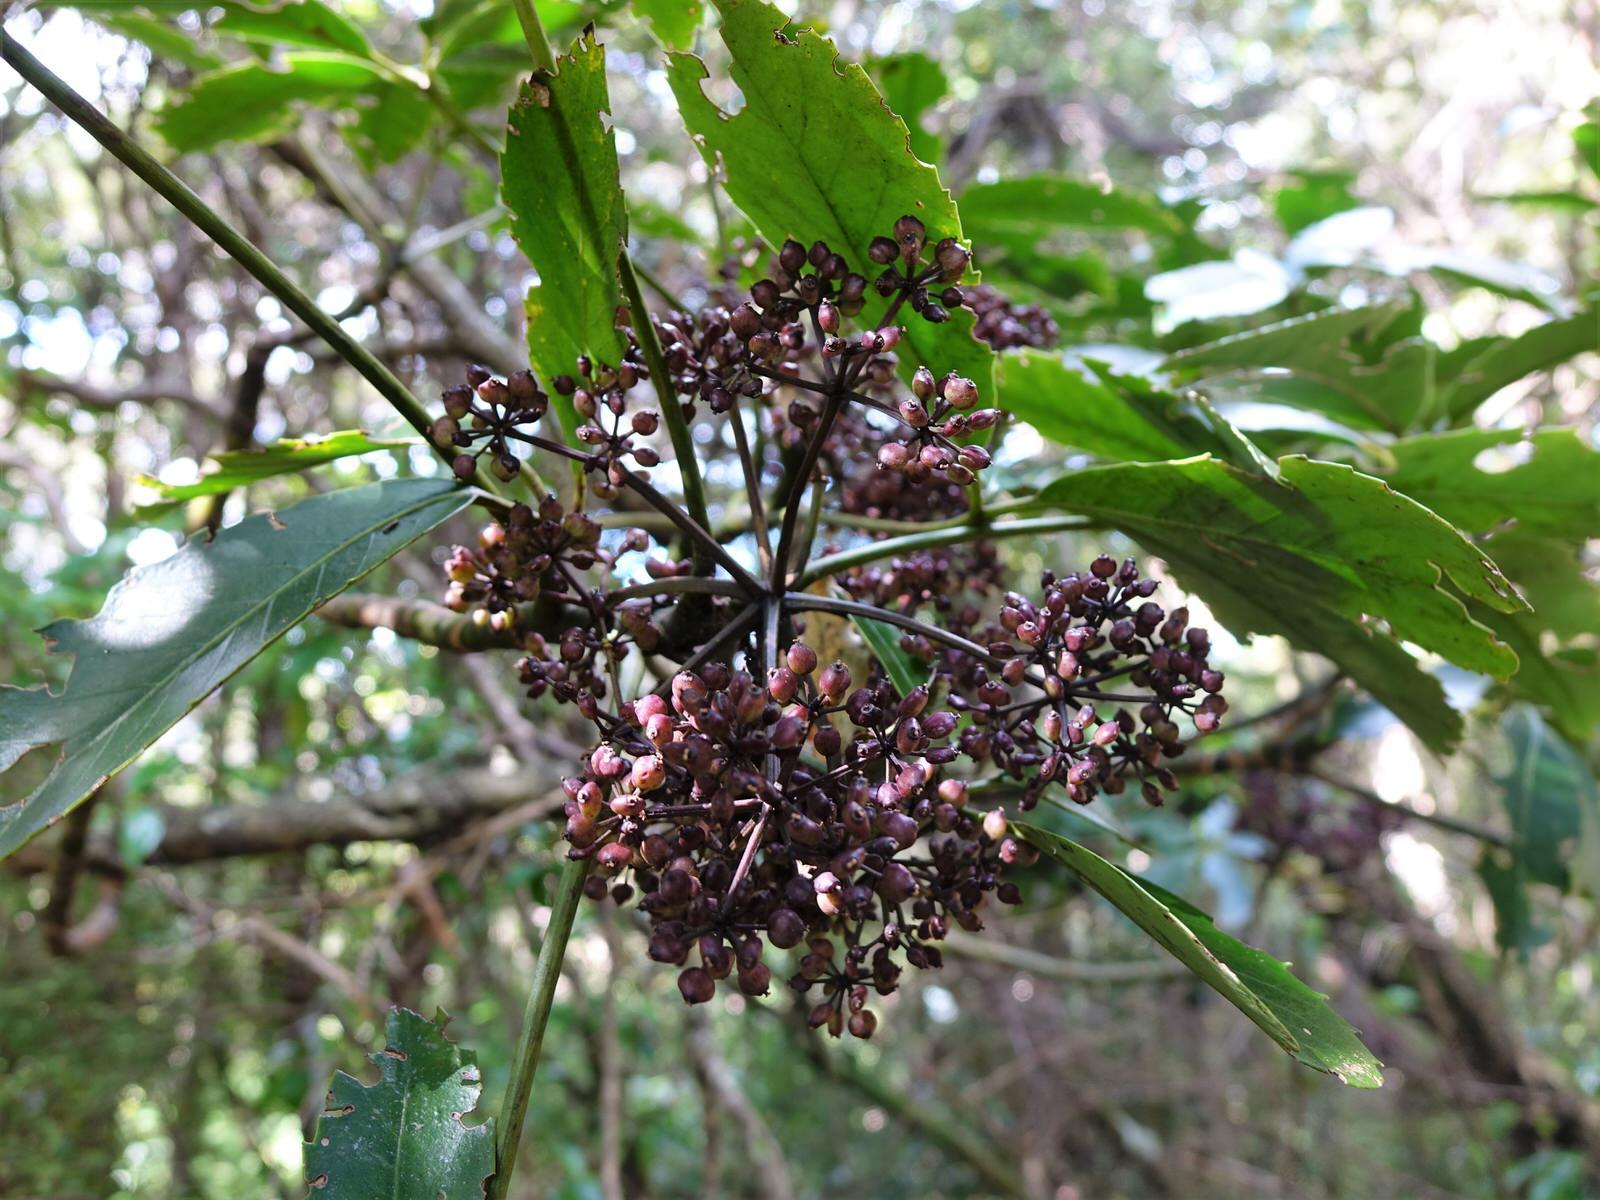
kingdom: Plantae
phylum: Tracheophyta
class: Magnoliopsida
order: Apiales
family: Araliaceae
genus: Neopanax
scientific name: Neopanax arboreus
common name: Five-fingers
